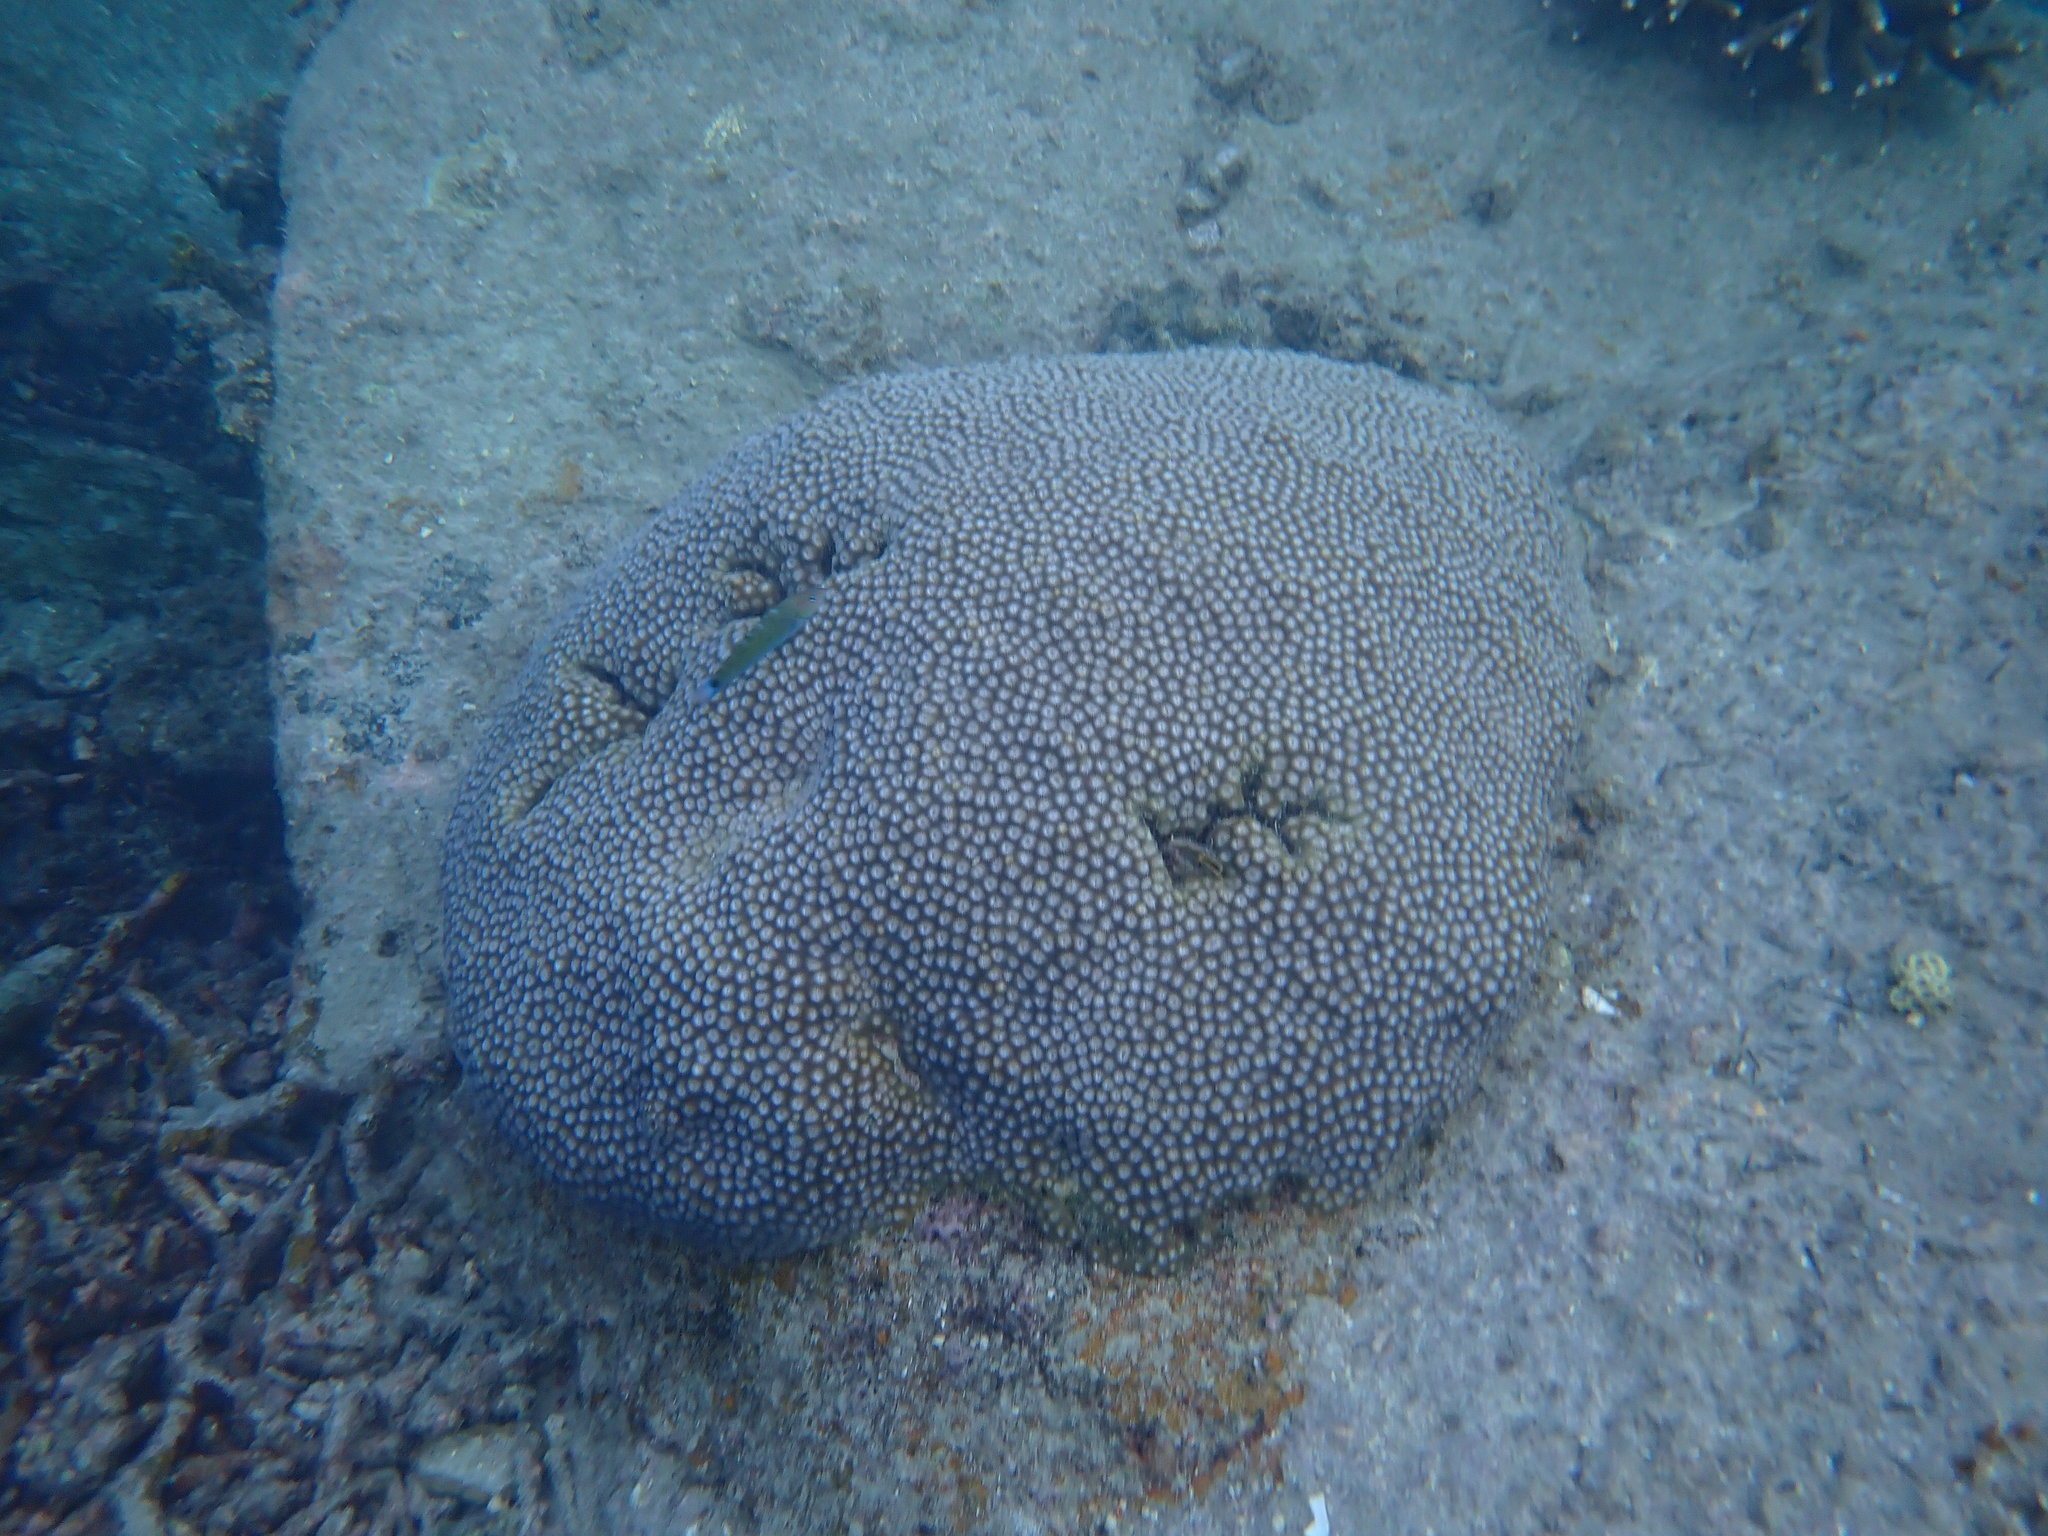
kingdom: Animalia
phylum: Cnidaria
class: Anthozoa
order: Scleractinia
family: Diploastraeidae
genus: Diploastrea
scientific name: Diploastrea heliopora
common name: Double-star coral
